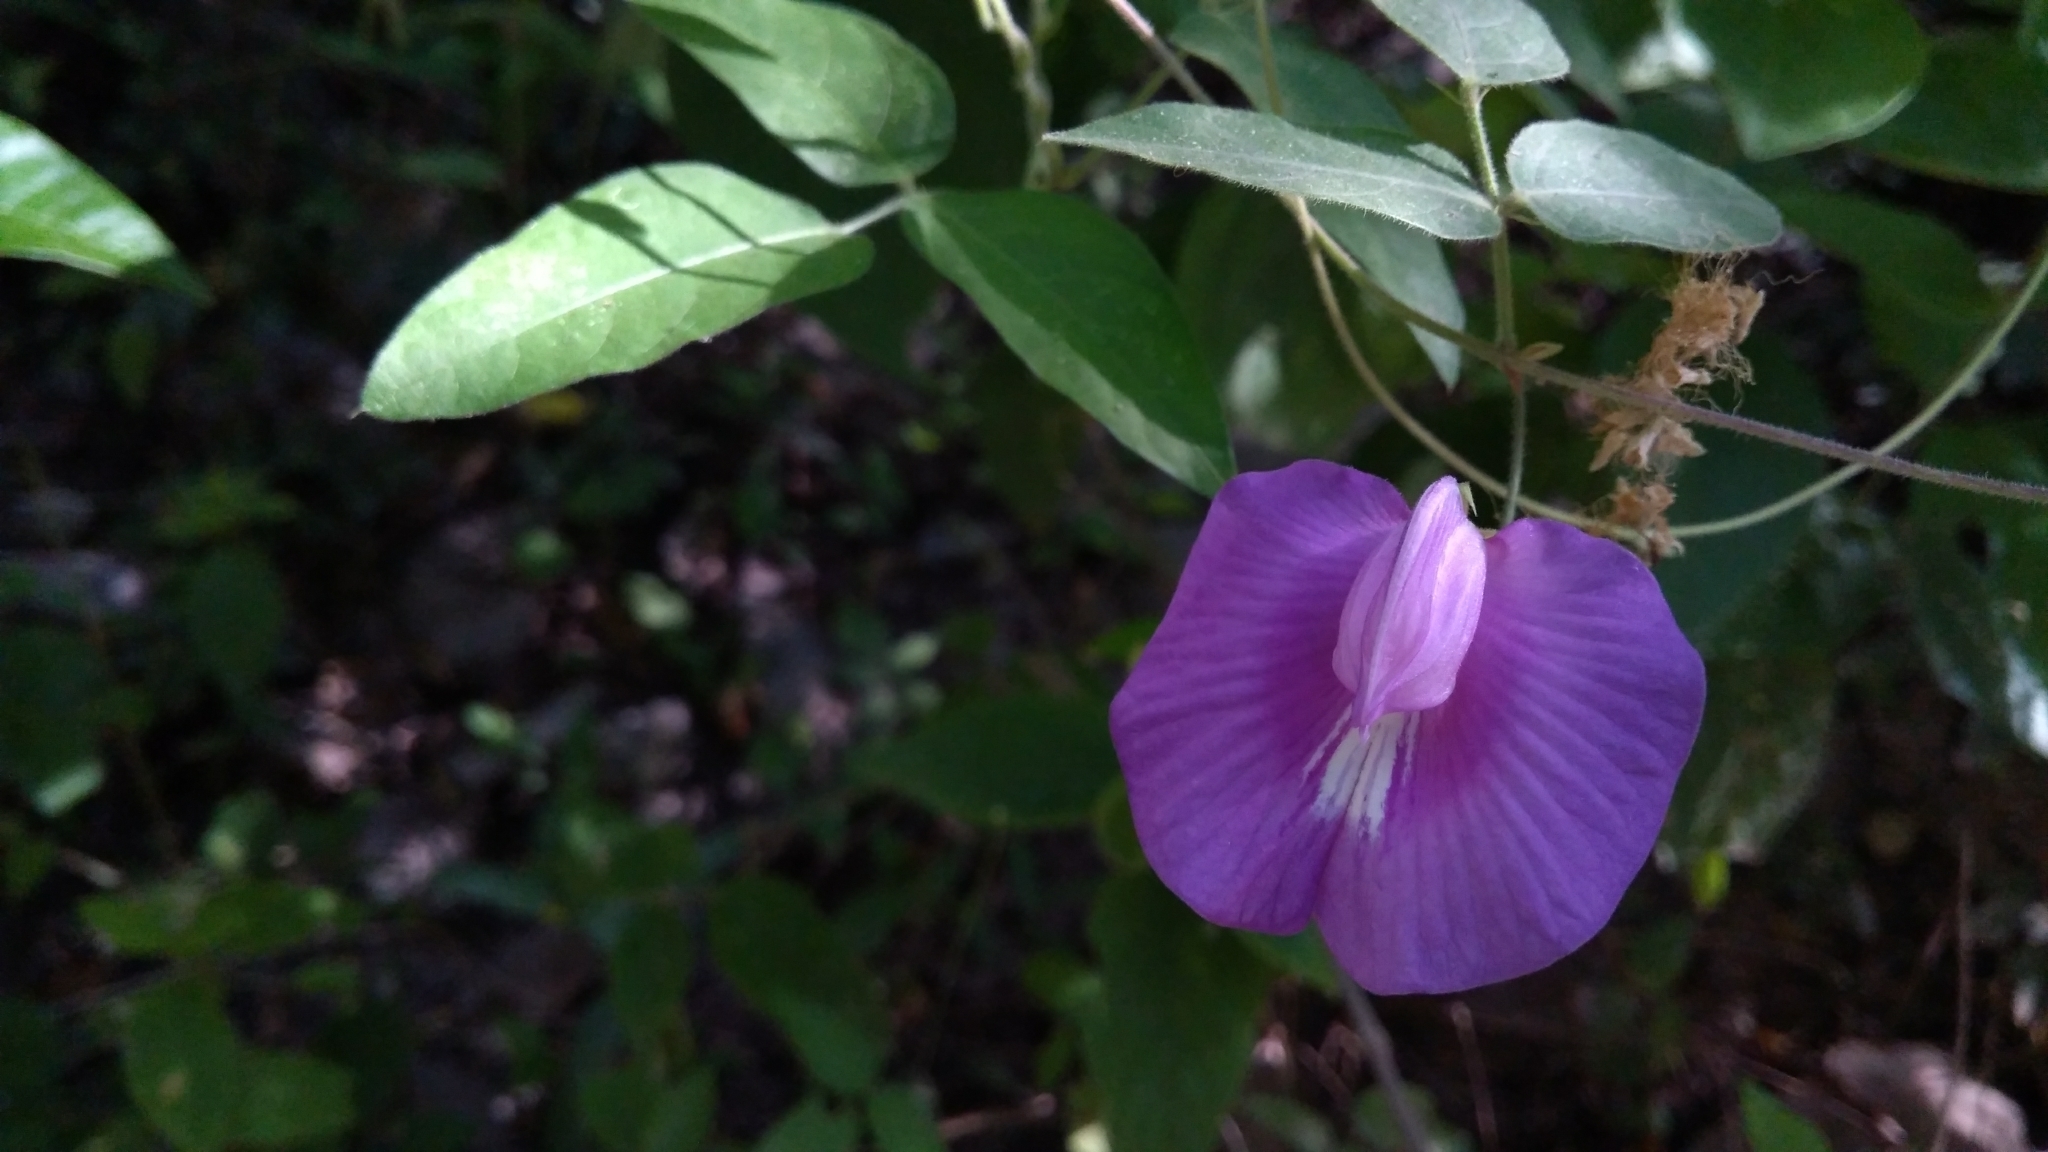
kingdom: Plantae
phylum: Tracheophyta
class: Magnoliopsida
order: Fabales
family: Fabaceae
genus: Centrosema
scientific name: Centrosema virginianum
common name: Butterfly-pea
